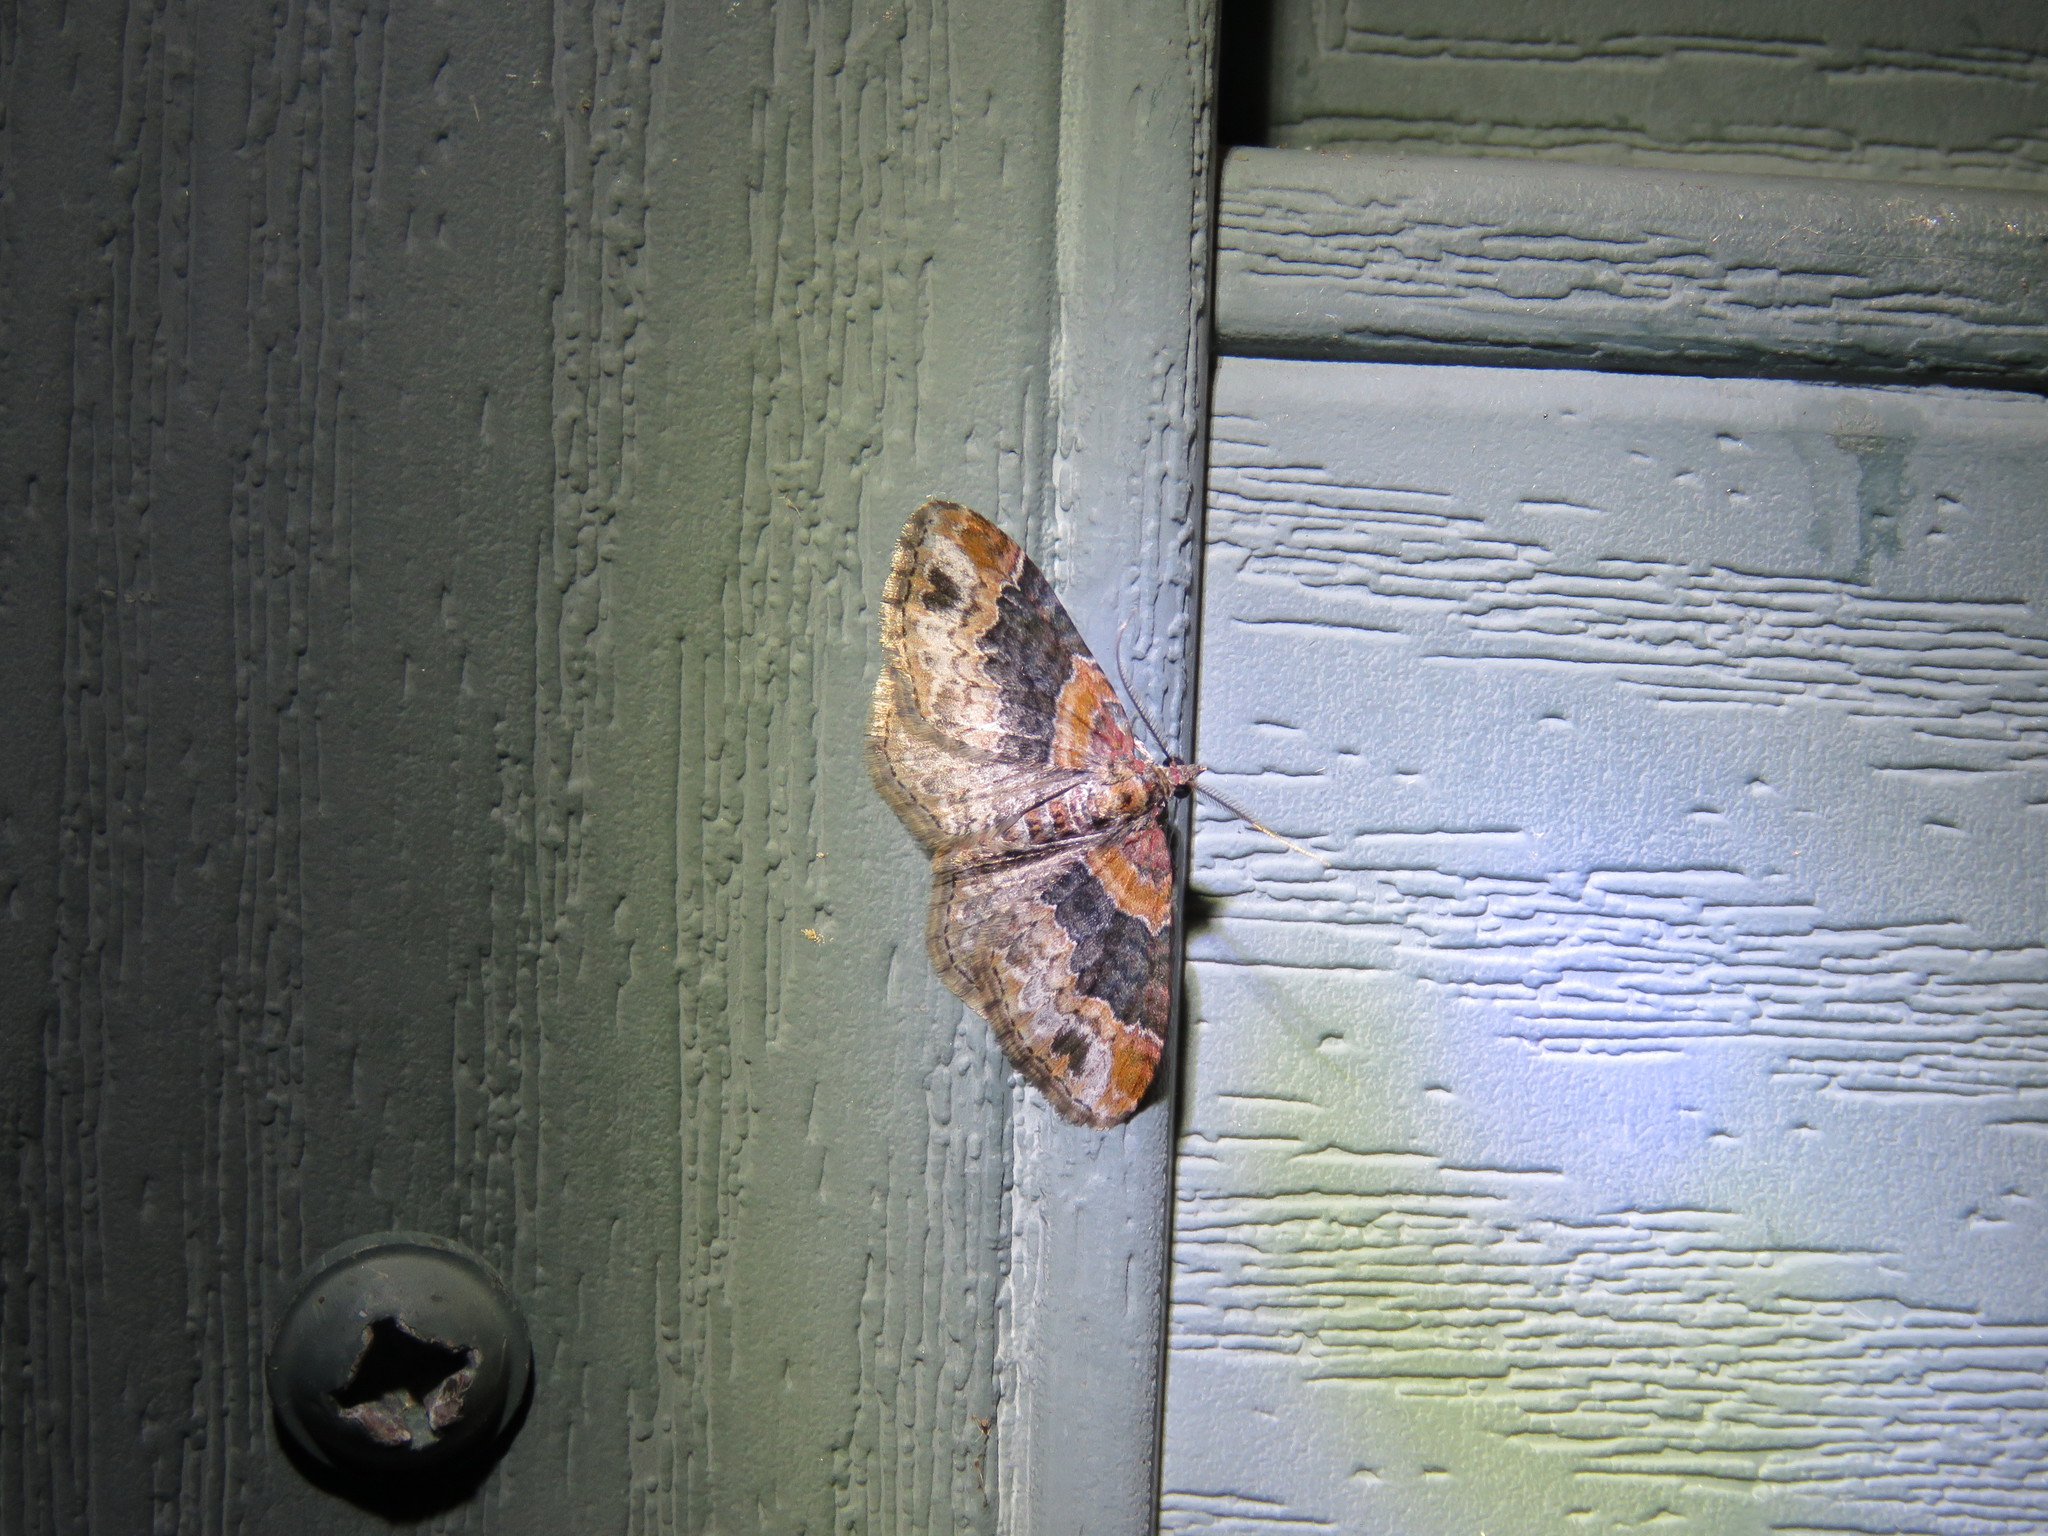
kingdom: Animalia
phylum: Arthropoda
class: Insecta
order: Lepidoptera
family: Geometridae
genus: Xanthorhoe
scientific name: Xanthorhoe ferrugata
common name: Dark-barred twin-spot carpet
